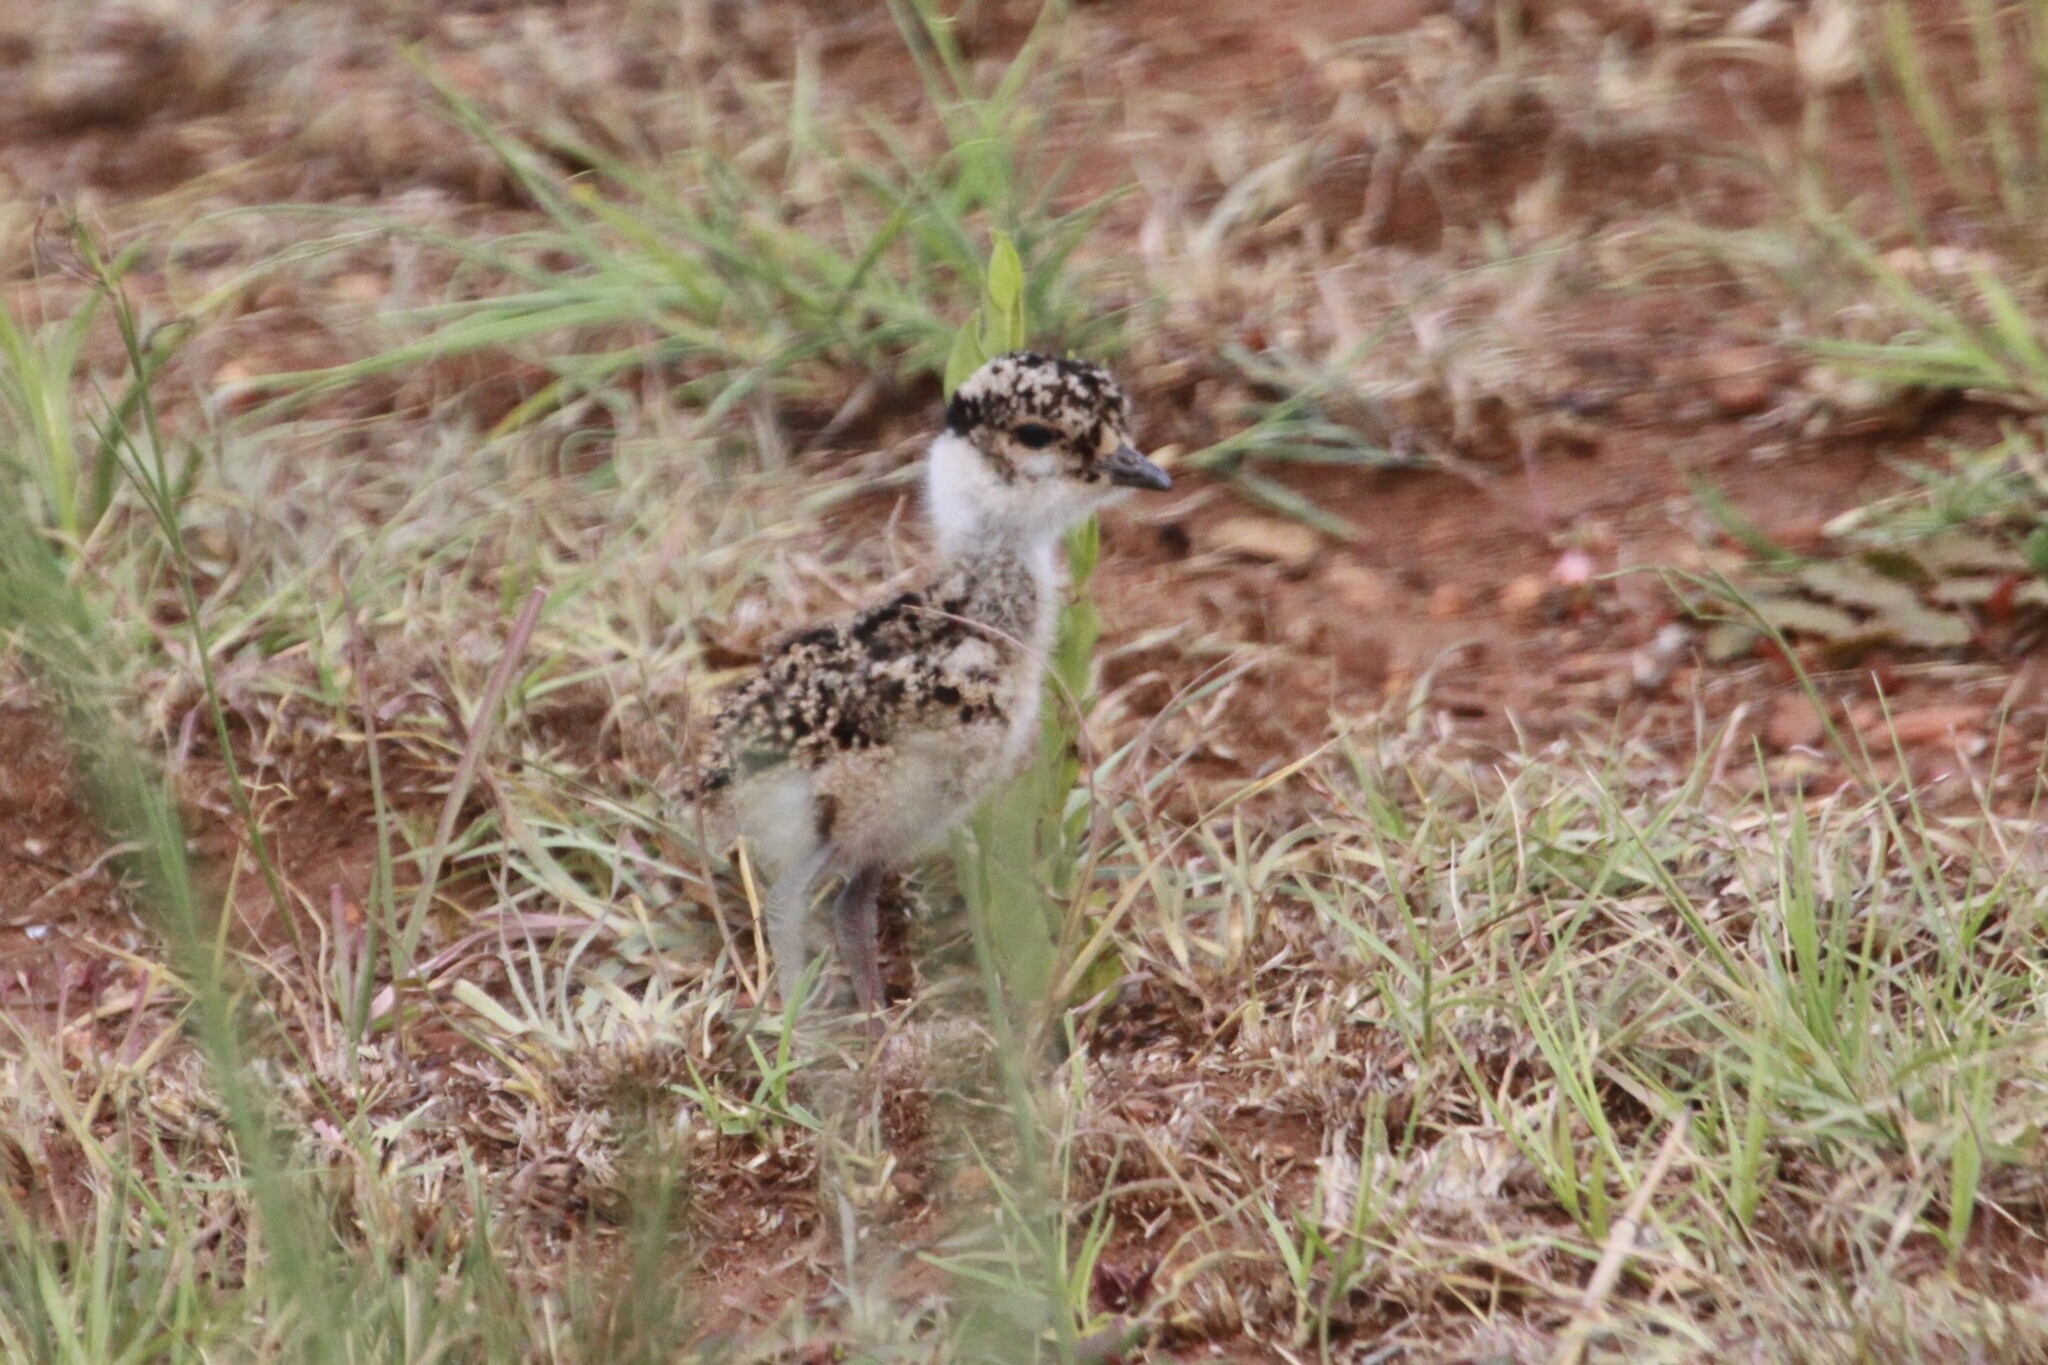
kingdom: Animalia
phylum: Chordata
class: Aves
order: Charadriiformes
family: Charadriidae
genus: Vanellus
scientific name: Vanellus coronatus
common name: Crowned lapwing
